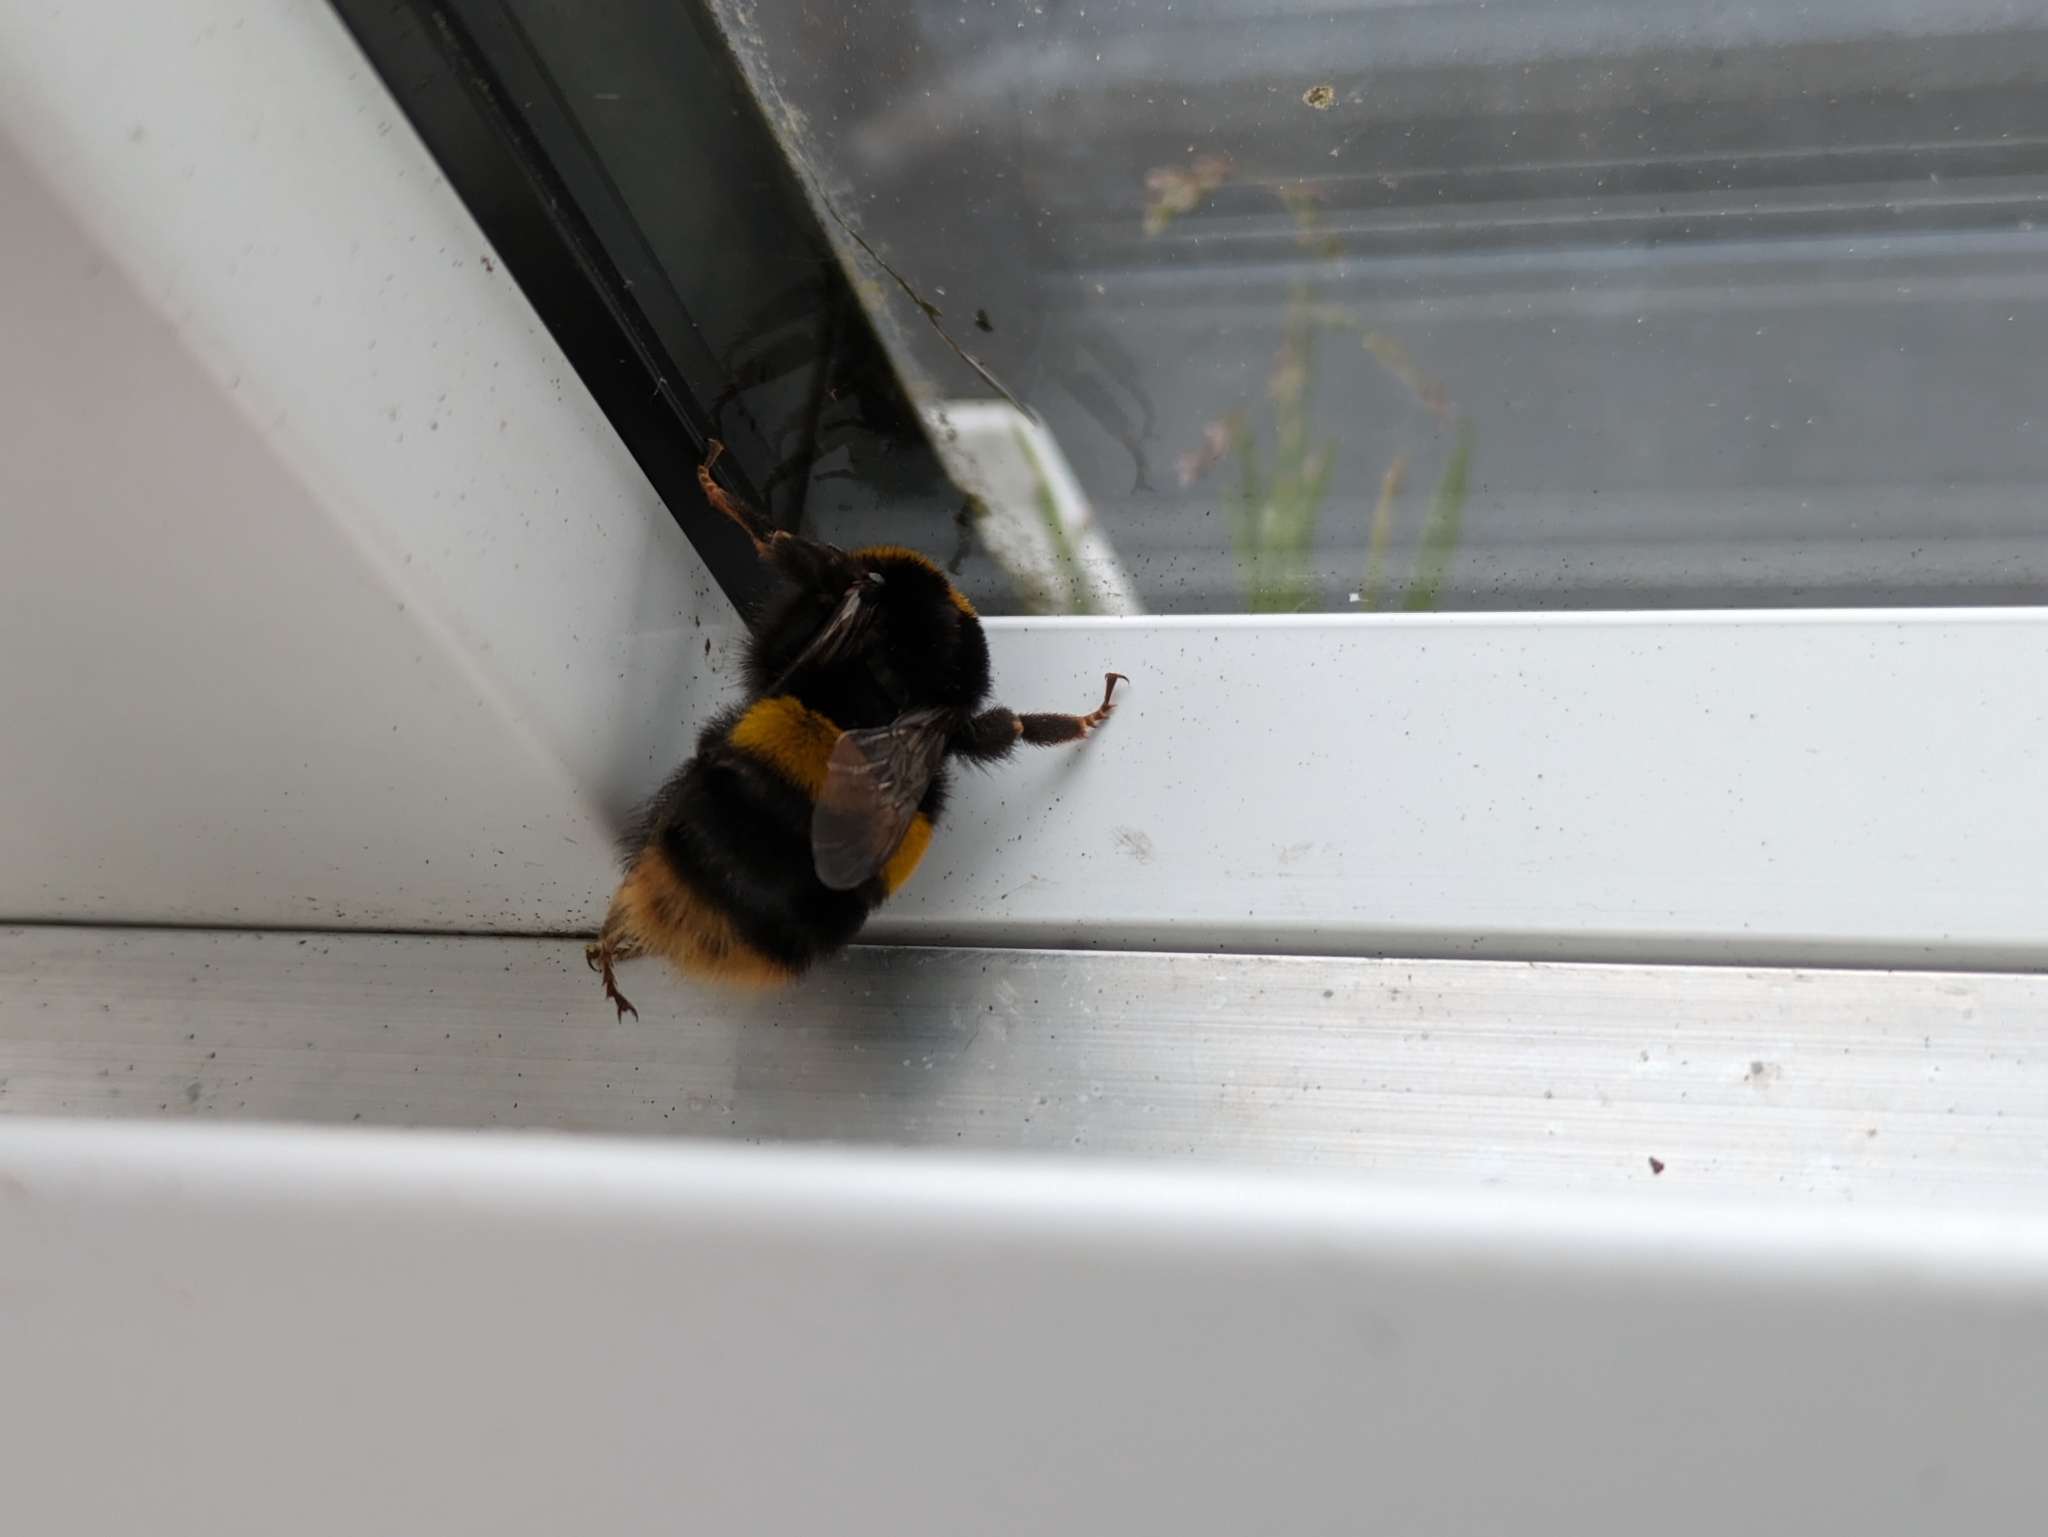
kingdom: Animalia
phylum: Arthropoda
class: Insecta
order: Hymenoptera
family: Apidae
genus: Bombus
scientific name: Bombus terrestris
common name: Buff-tailed bumblebee
